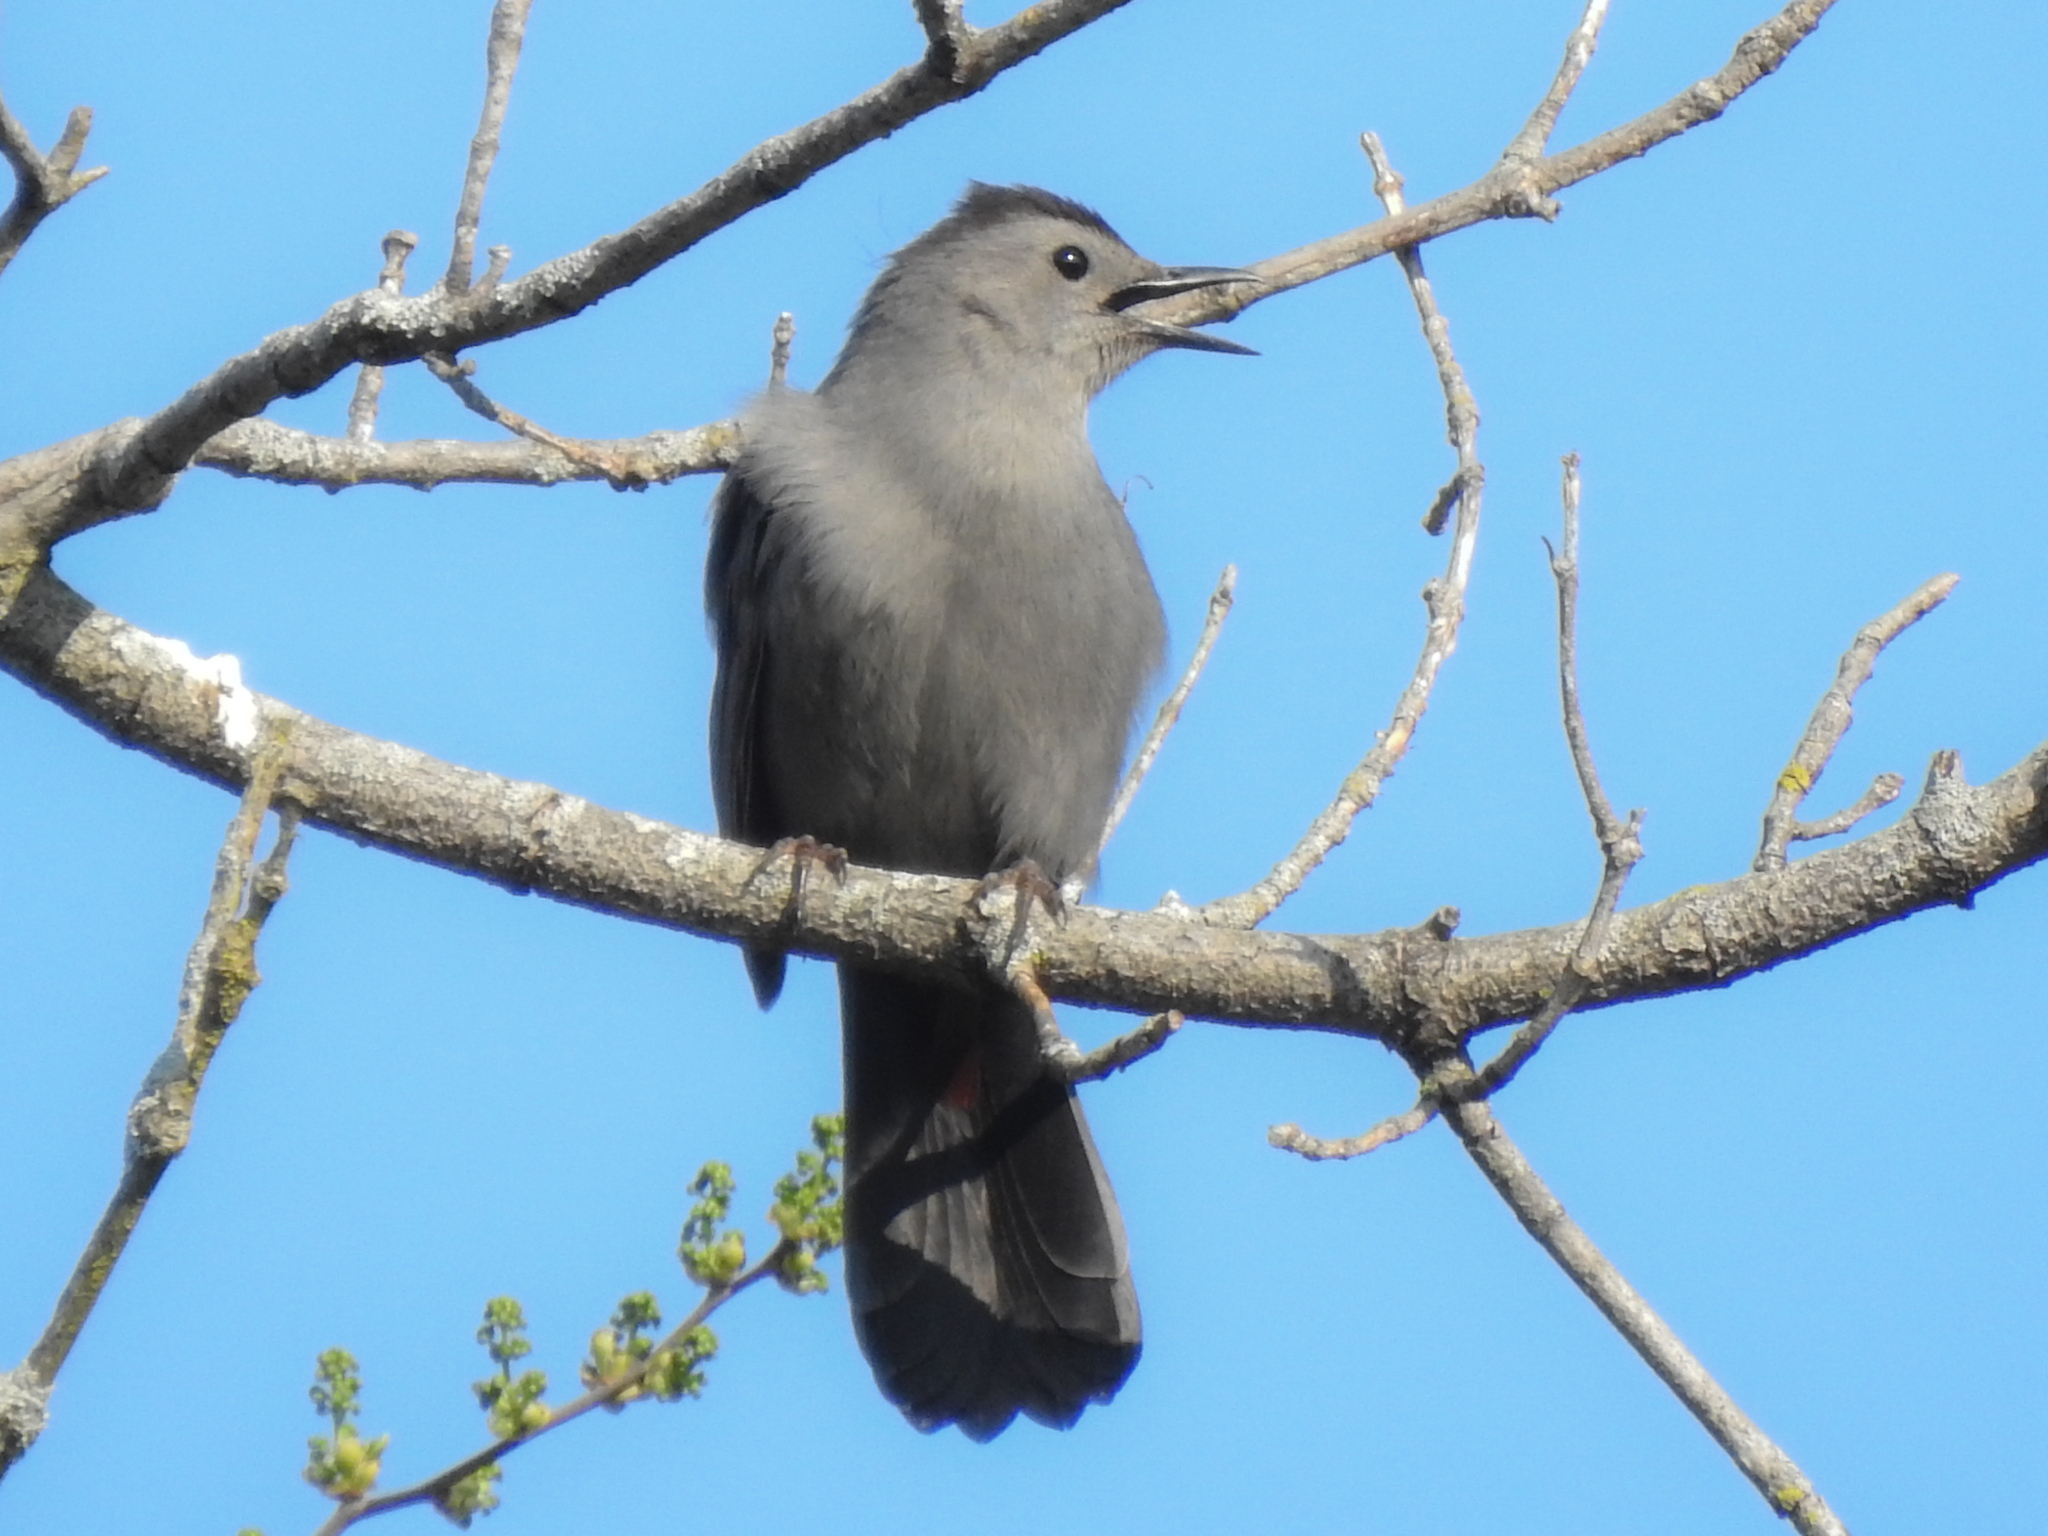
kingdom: Animalia
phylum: Chordata
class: Aves
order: Passeriformes
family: Mimidae
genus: Dumetella
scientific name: Dumetella carolinensis
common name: Gray catbird
